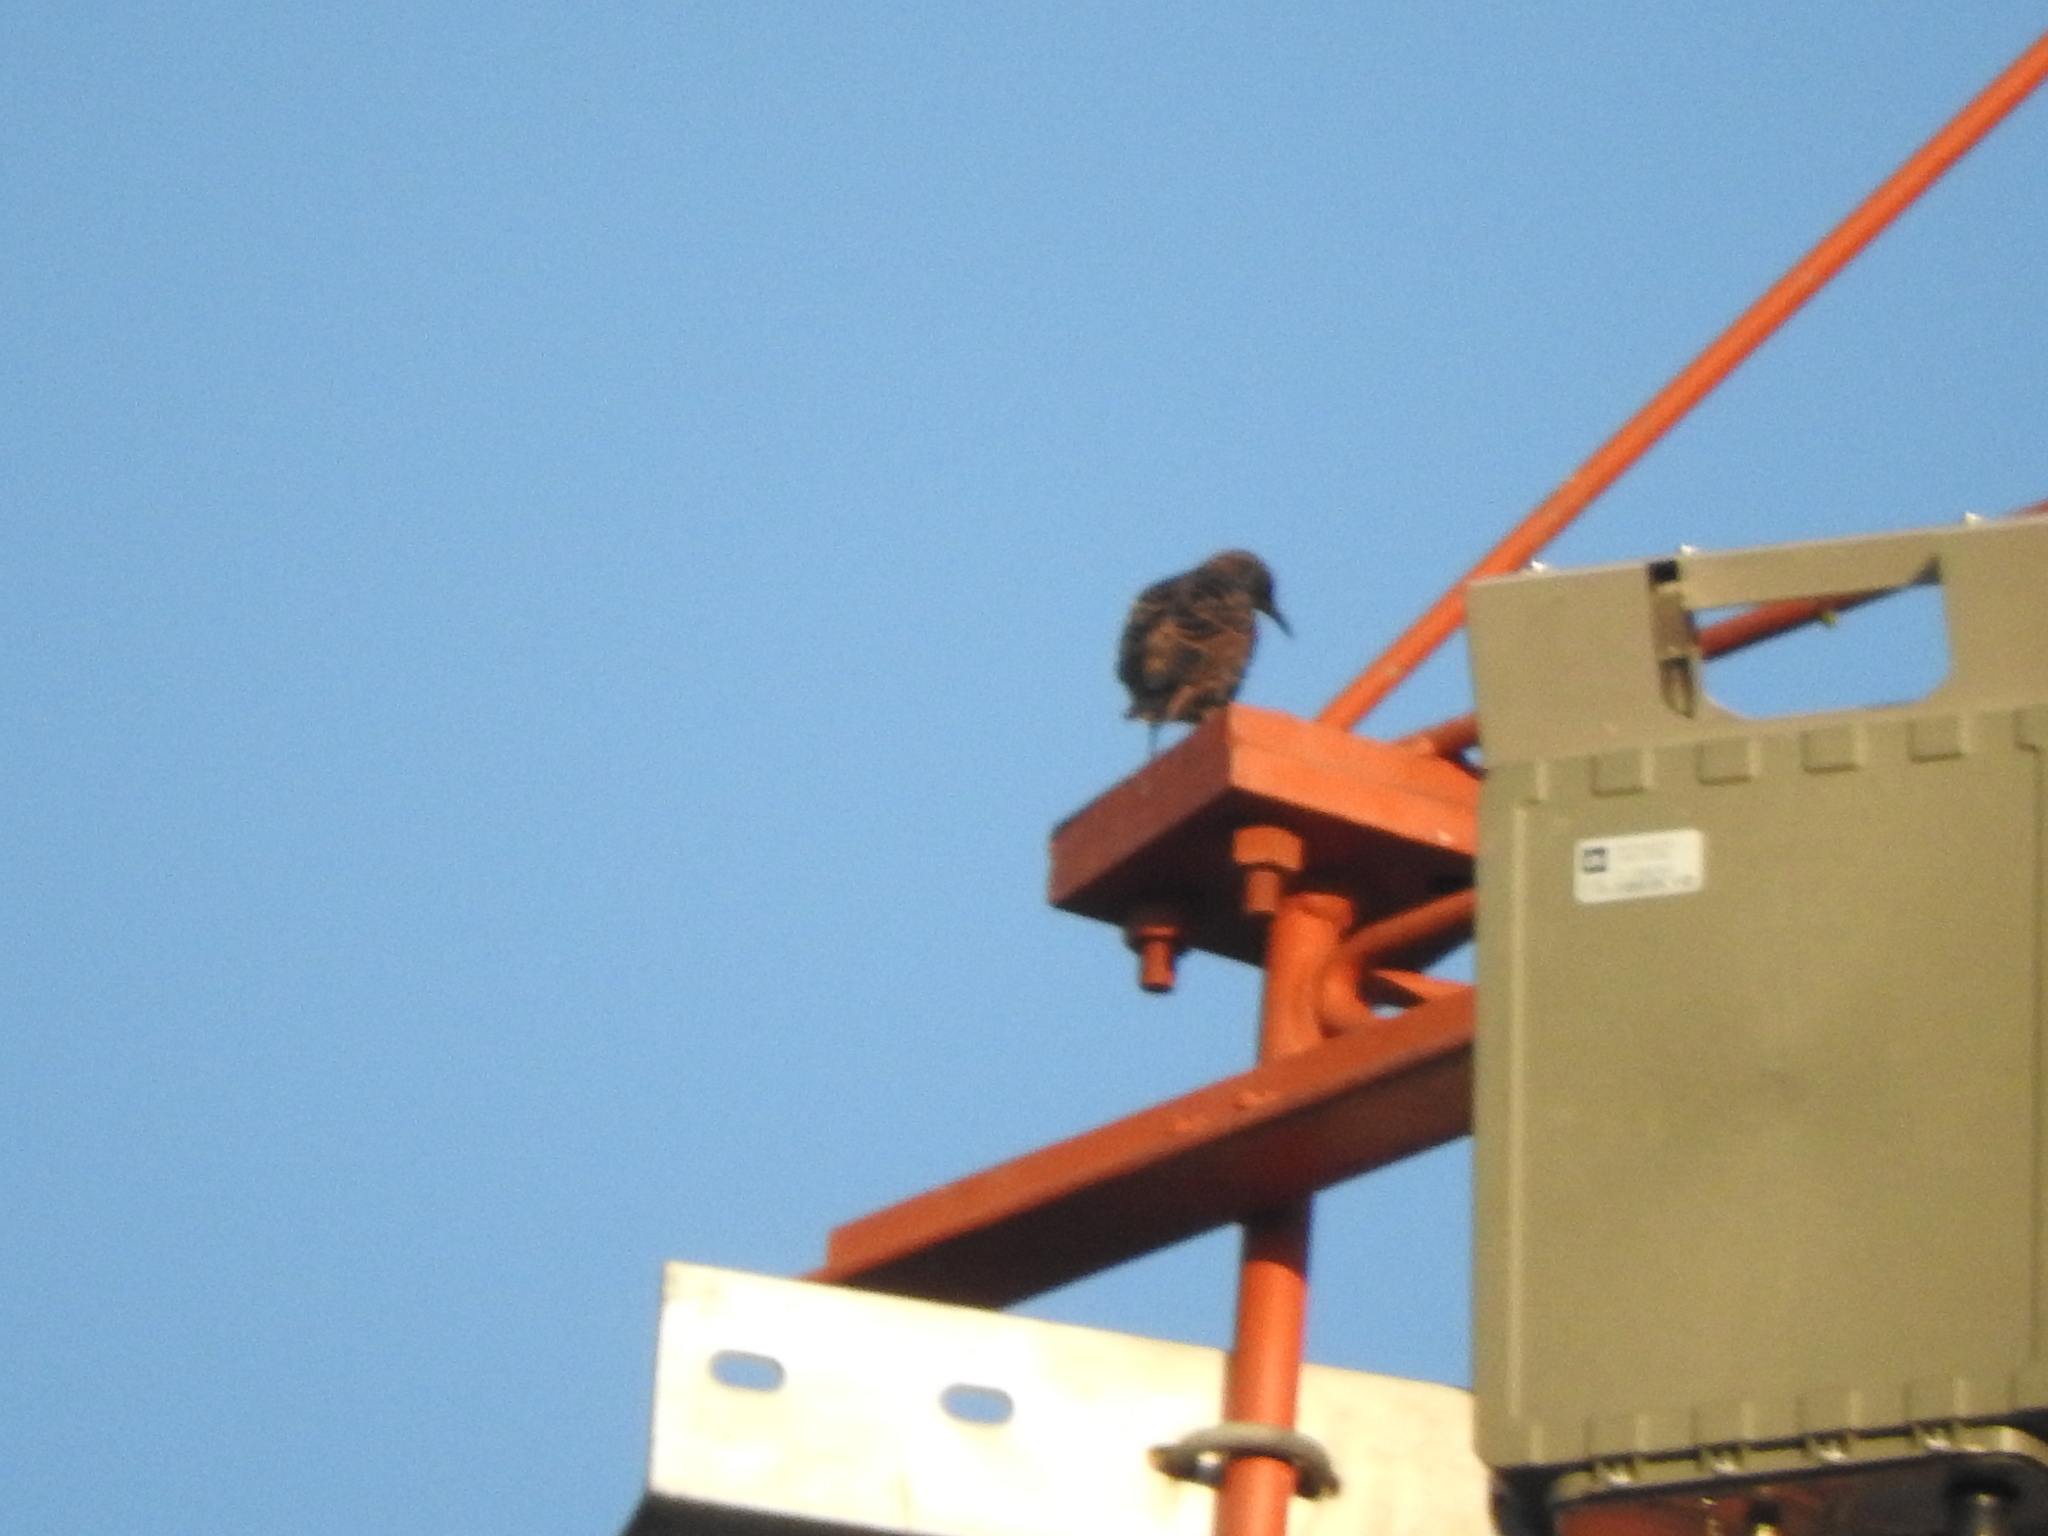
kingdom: Animalia
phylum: Chordata
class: Aves
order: Passeriformes
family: Sturnidae
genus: Sturnus
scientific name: Sturnus vulgaris
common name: Common starling
